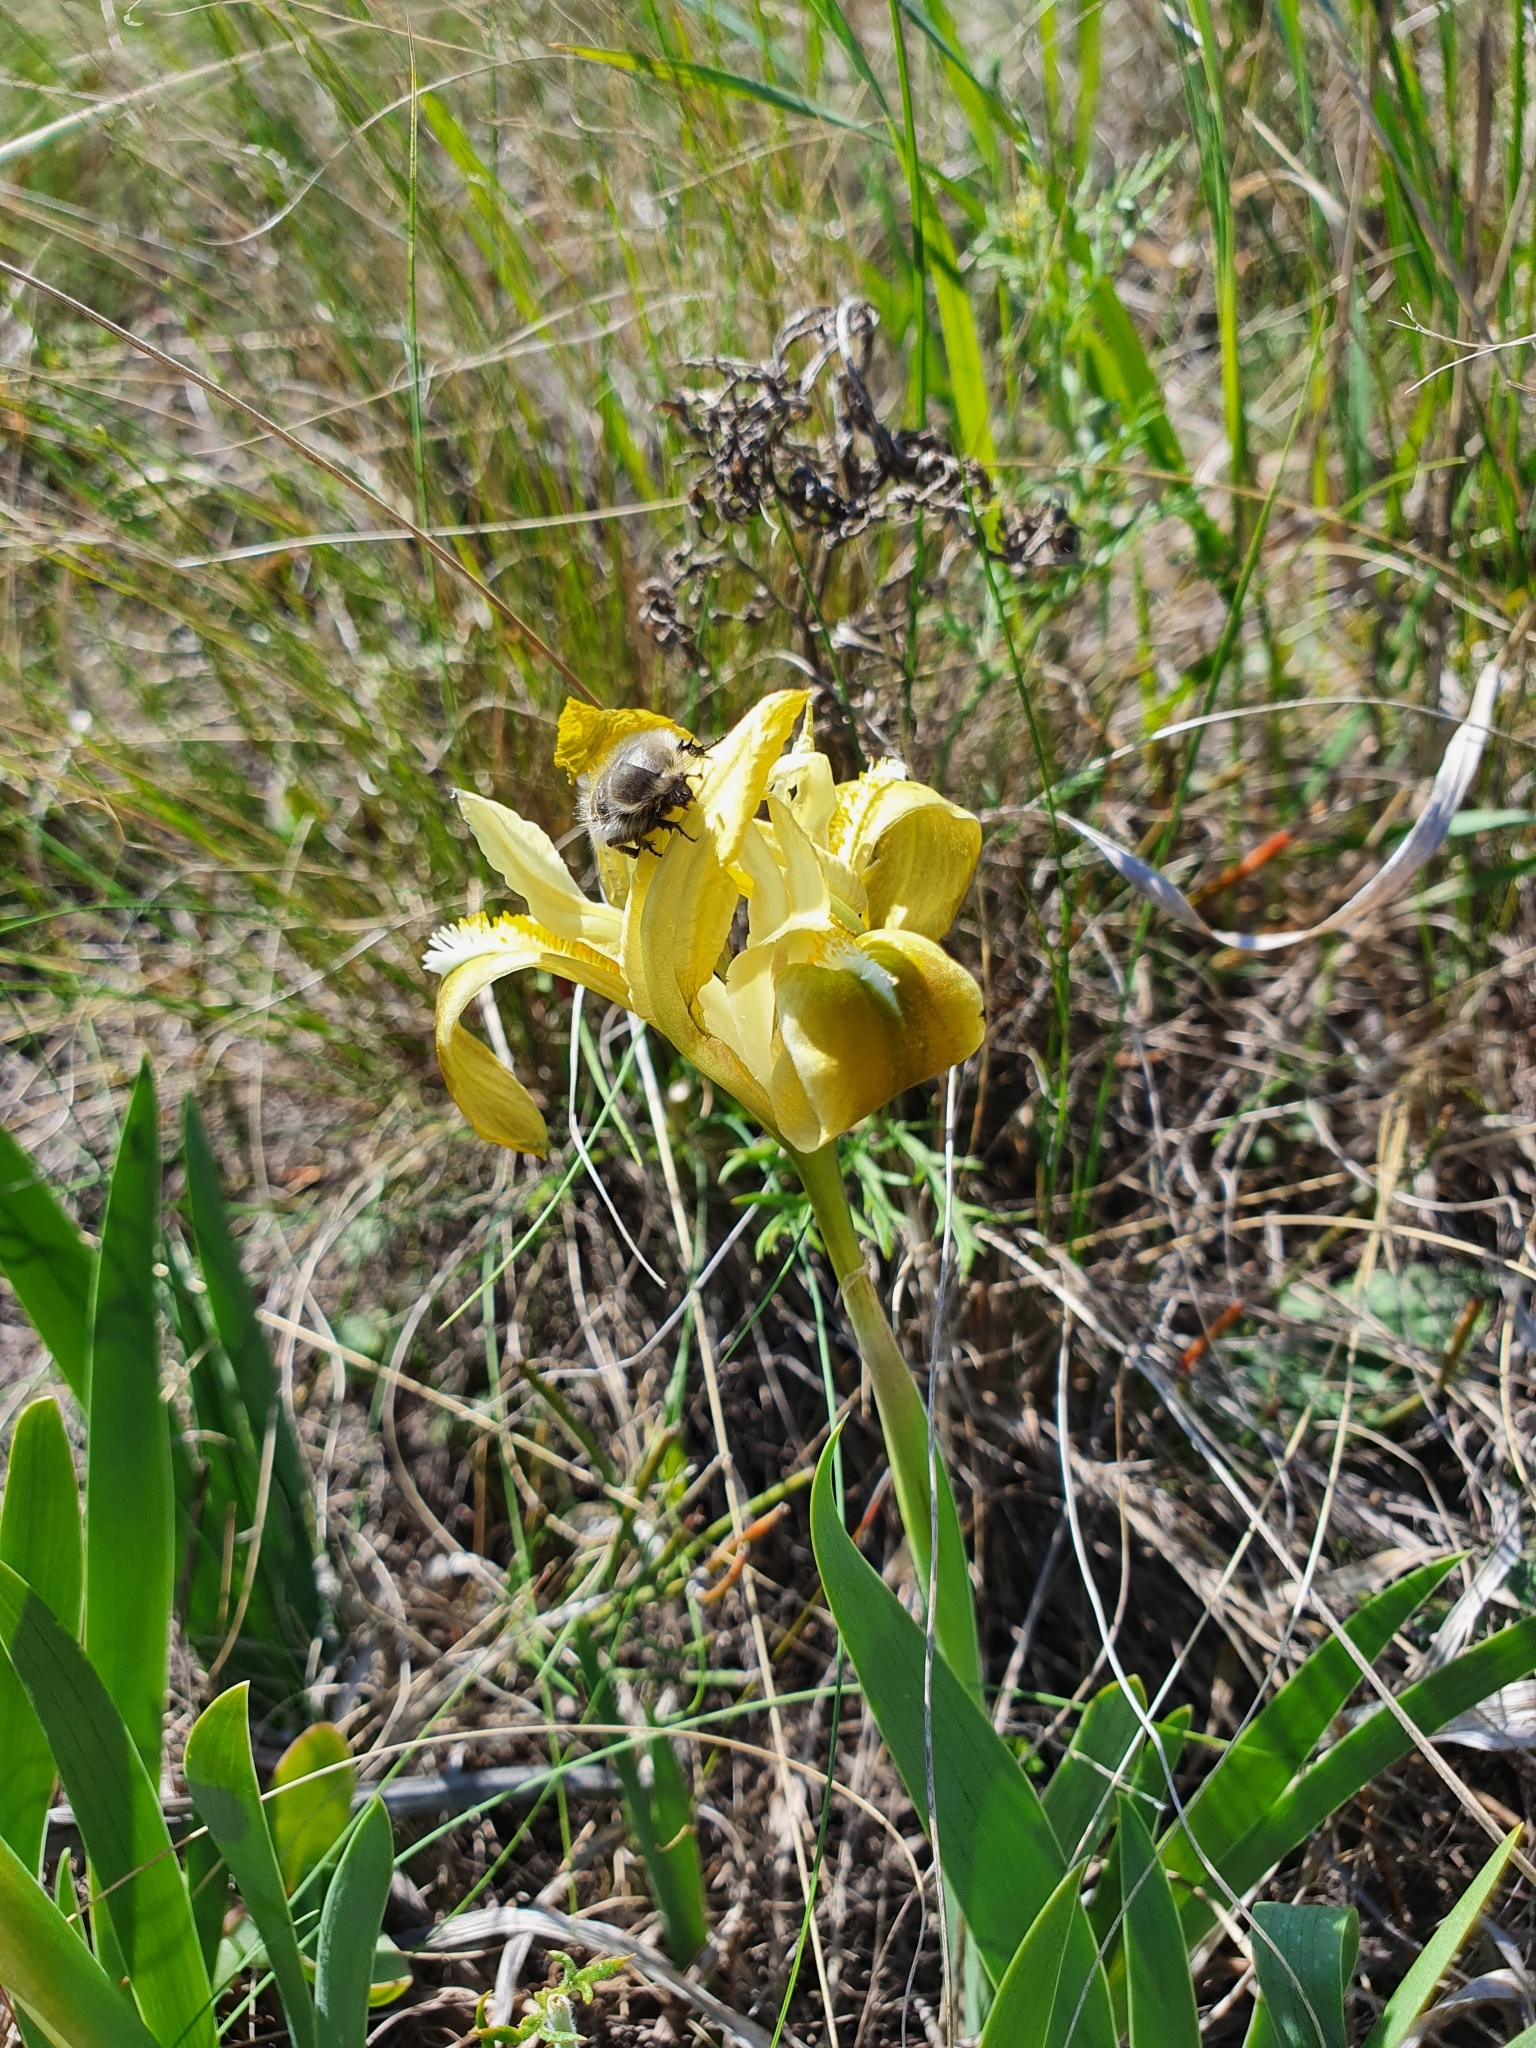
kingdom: Plantae
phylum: Tracheophyta
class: Liliopsida
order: Asparagales
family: Iridaceae
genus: Iris
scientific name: Iris pumila
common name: Dwarf iris
